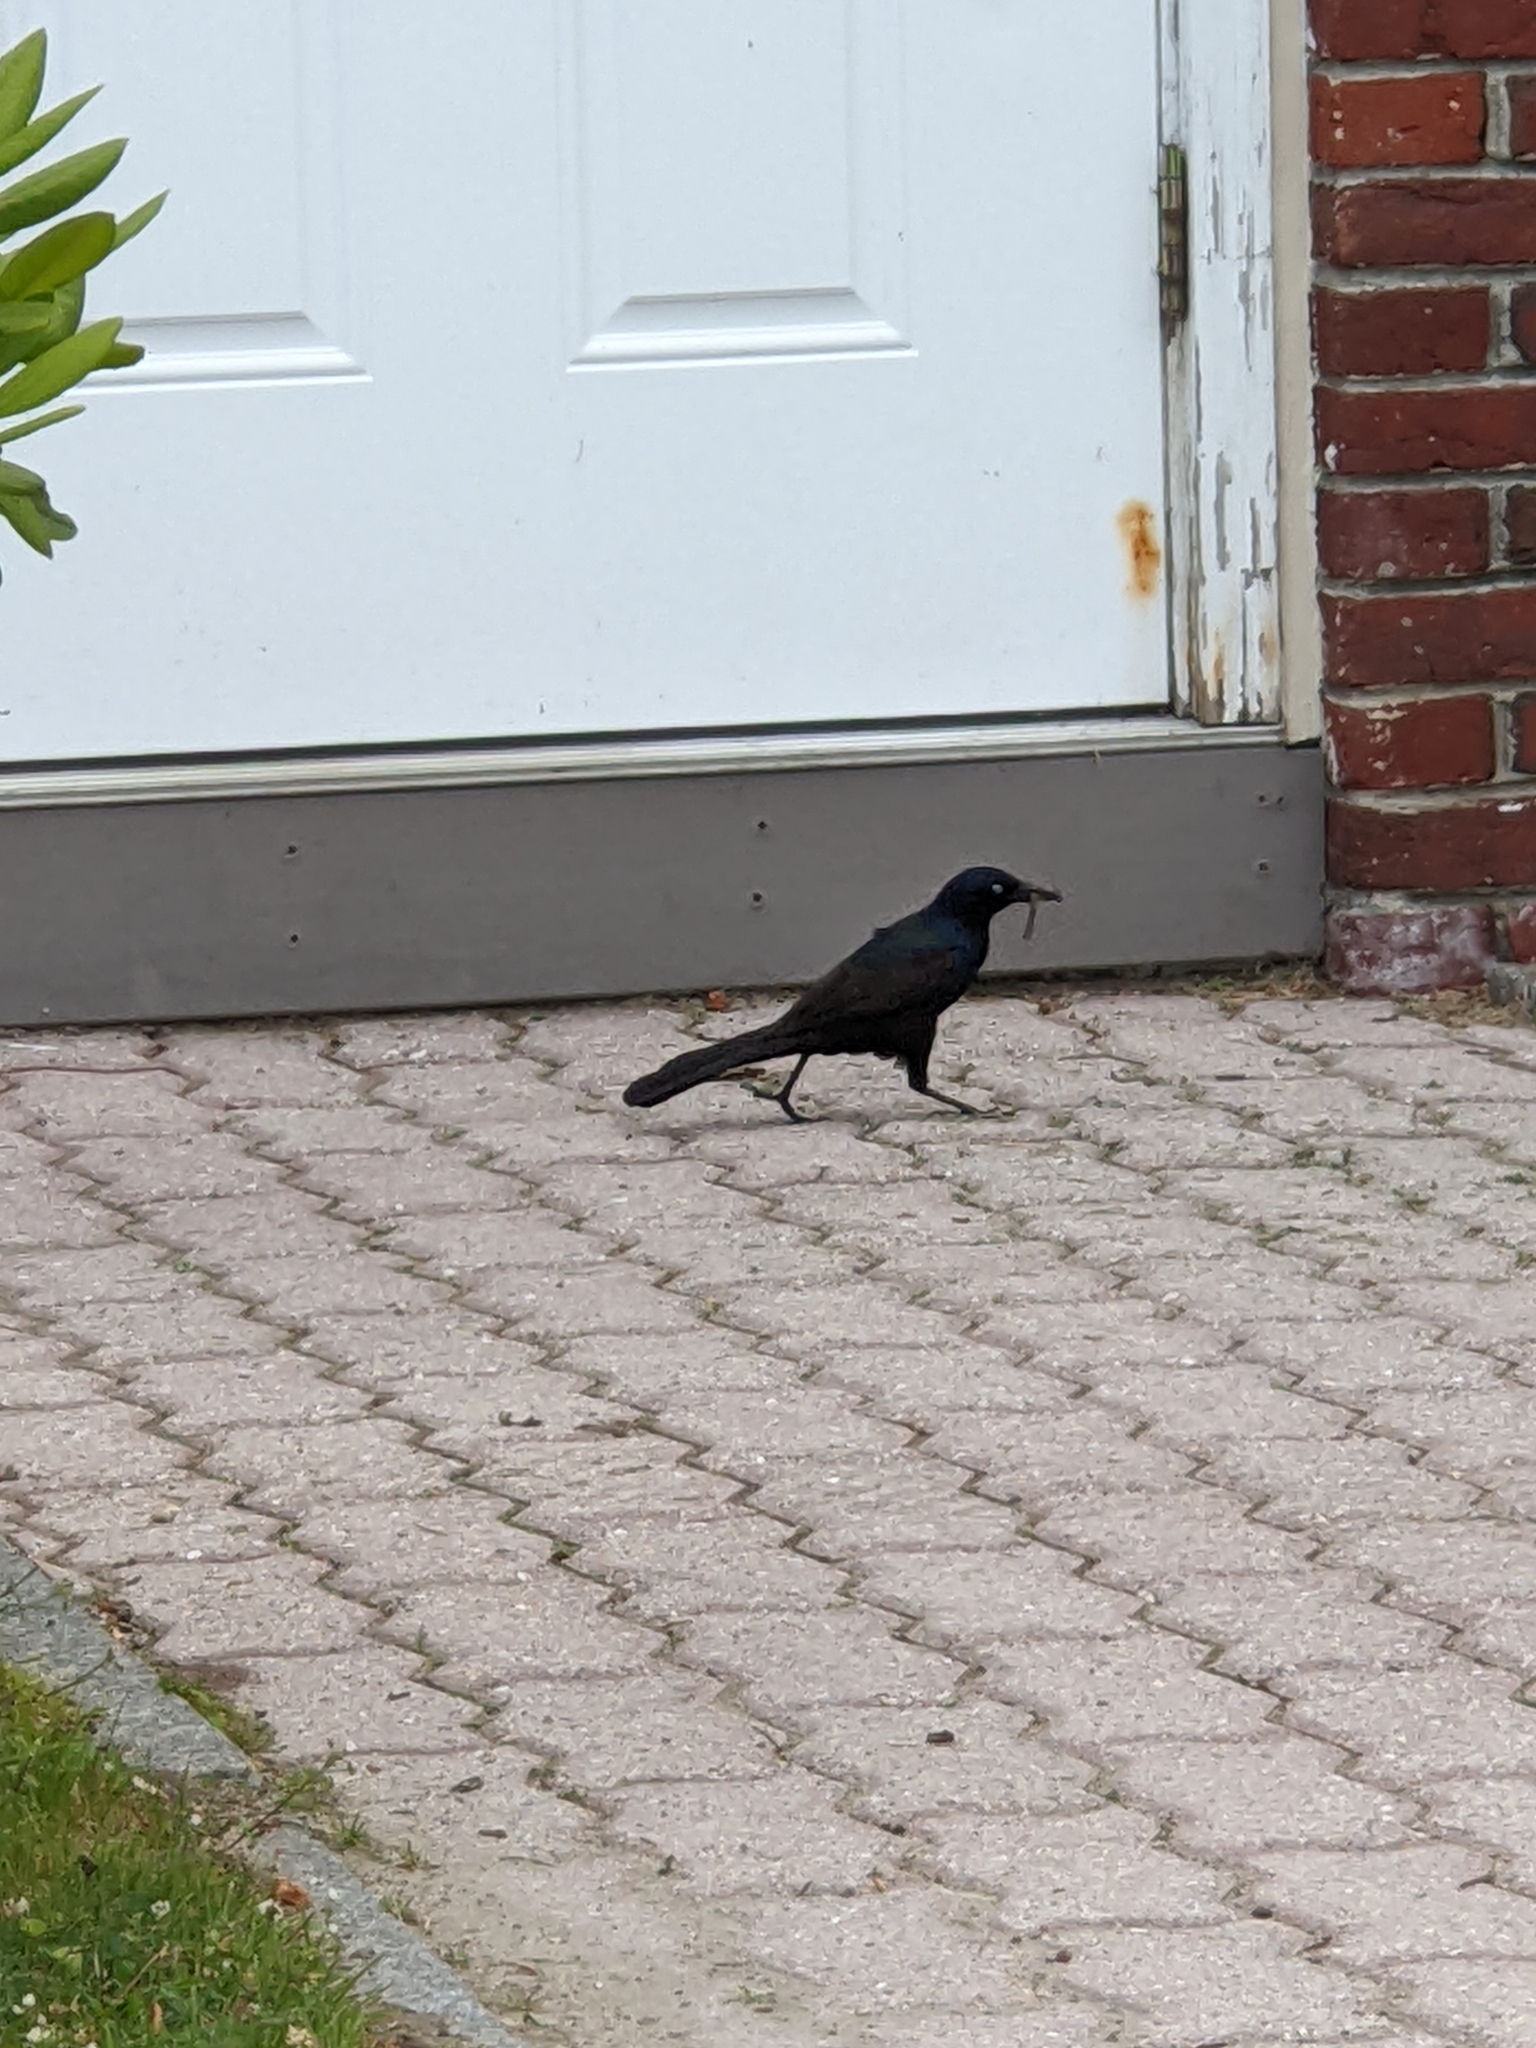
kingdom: Animalia
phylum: Chordata
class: Aves
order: Passeriformes
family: Icteridae
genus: Quiscalus
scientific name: Quiscalus quiscula
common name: Common grackle
